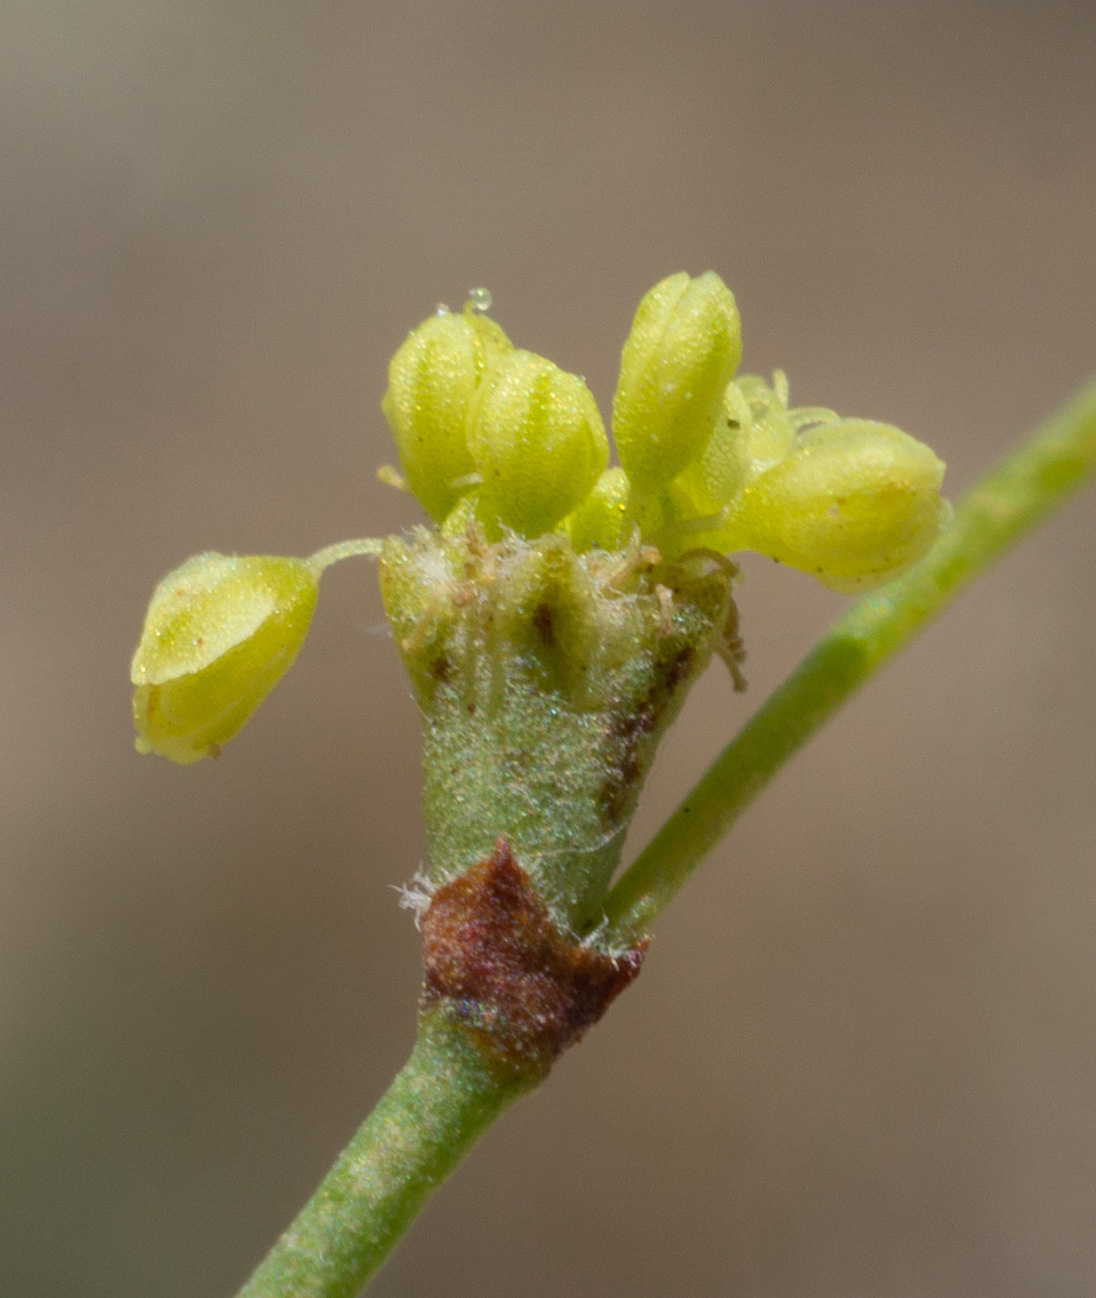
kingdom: Plantae
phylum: Tracheophyta
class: Magnoliopsida
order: Caryophyllales
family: Polygonaceae
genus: Eriogonum
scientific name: Eriogonum mohavense
